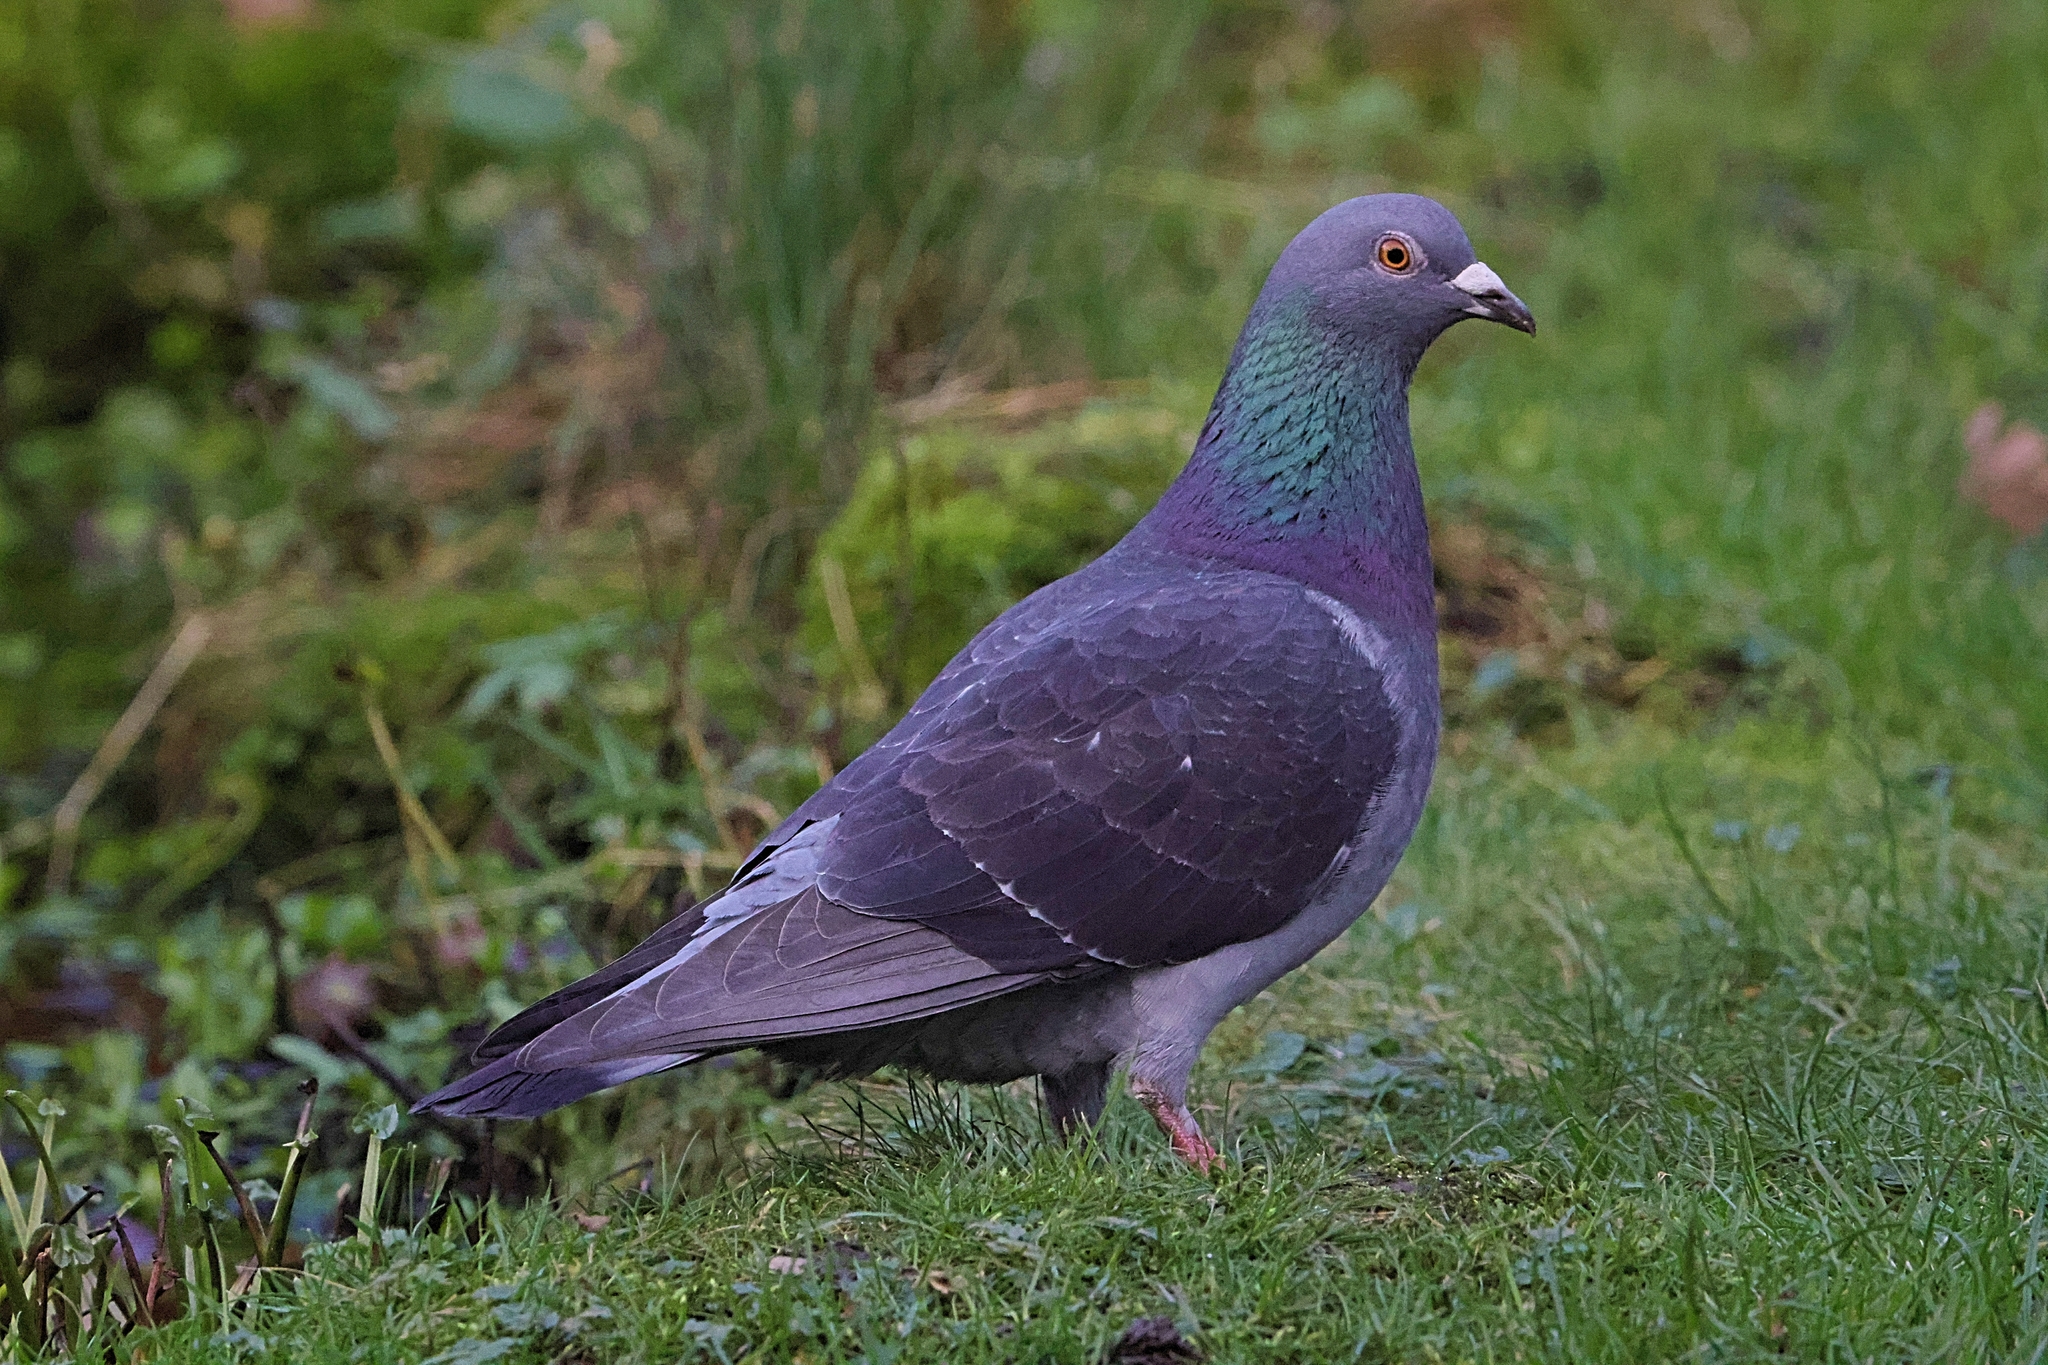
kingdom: Animalia
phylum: Chordata
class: Aves
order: Columbiformes
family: Columbidae
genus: Columba
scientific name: Columba livia
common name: Rock pigeon
